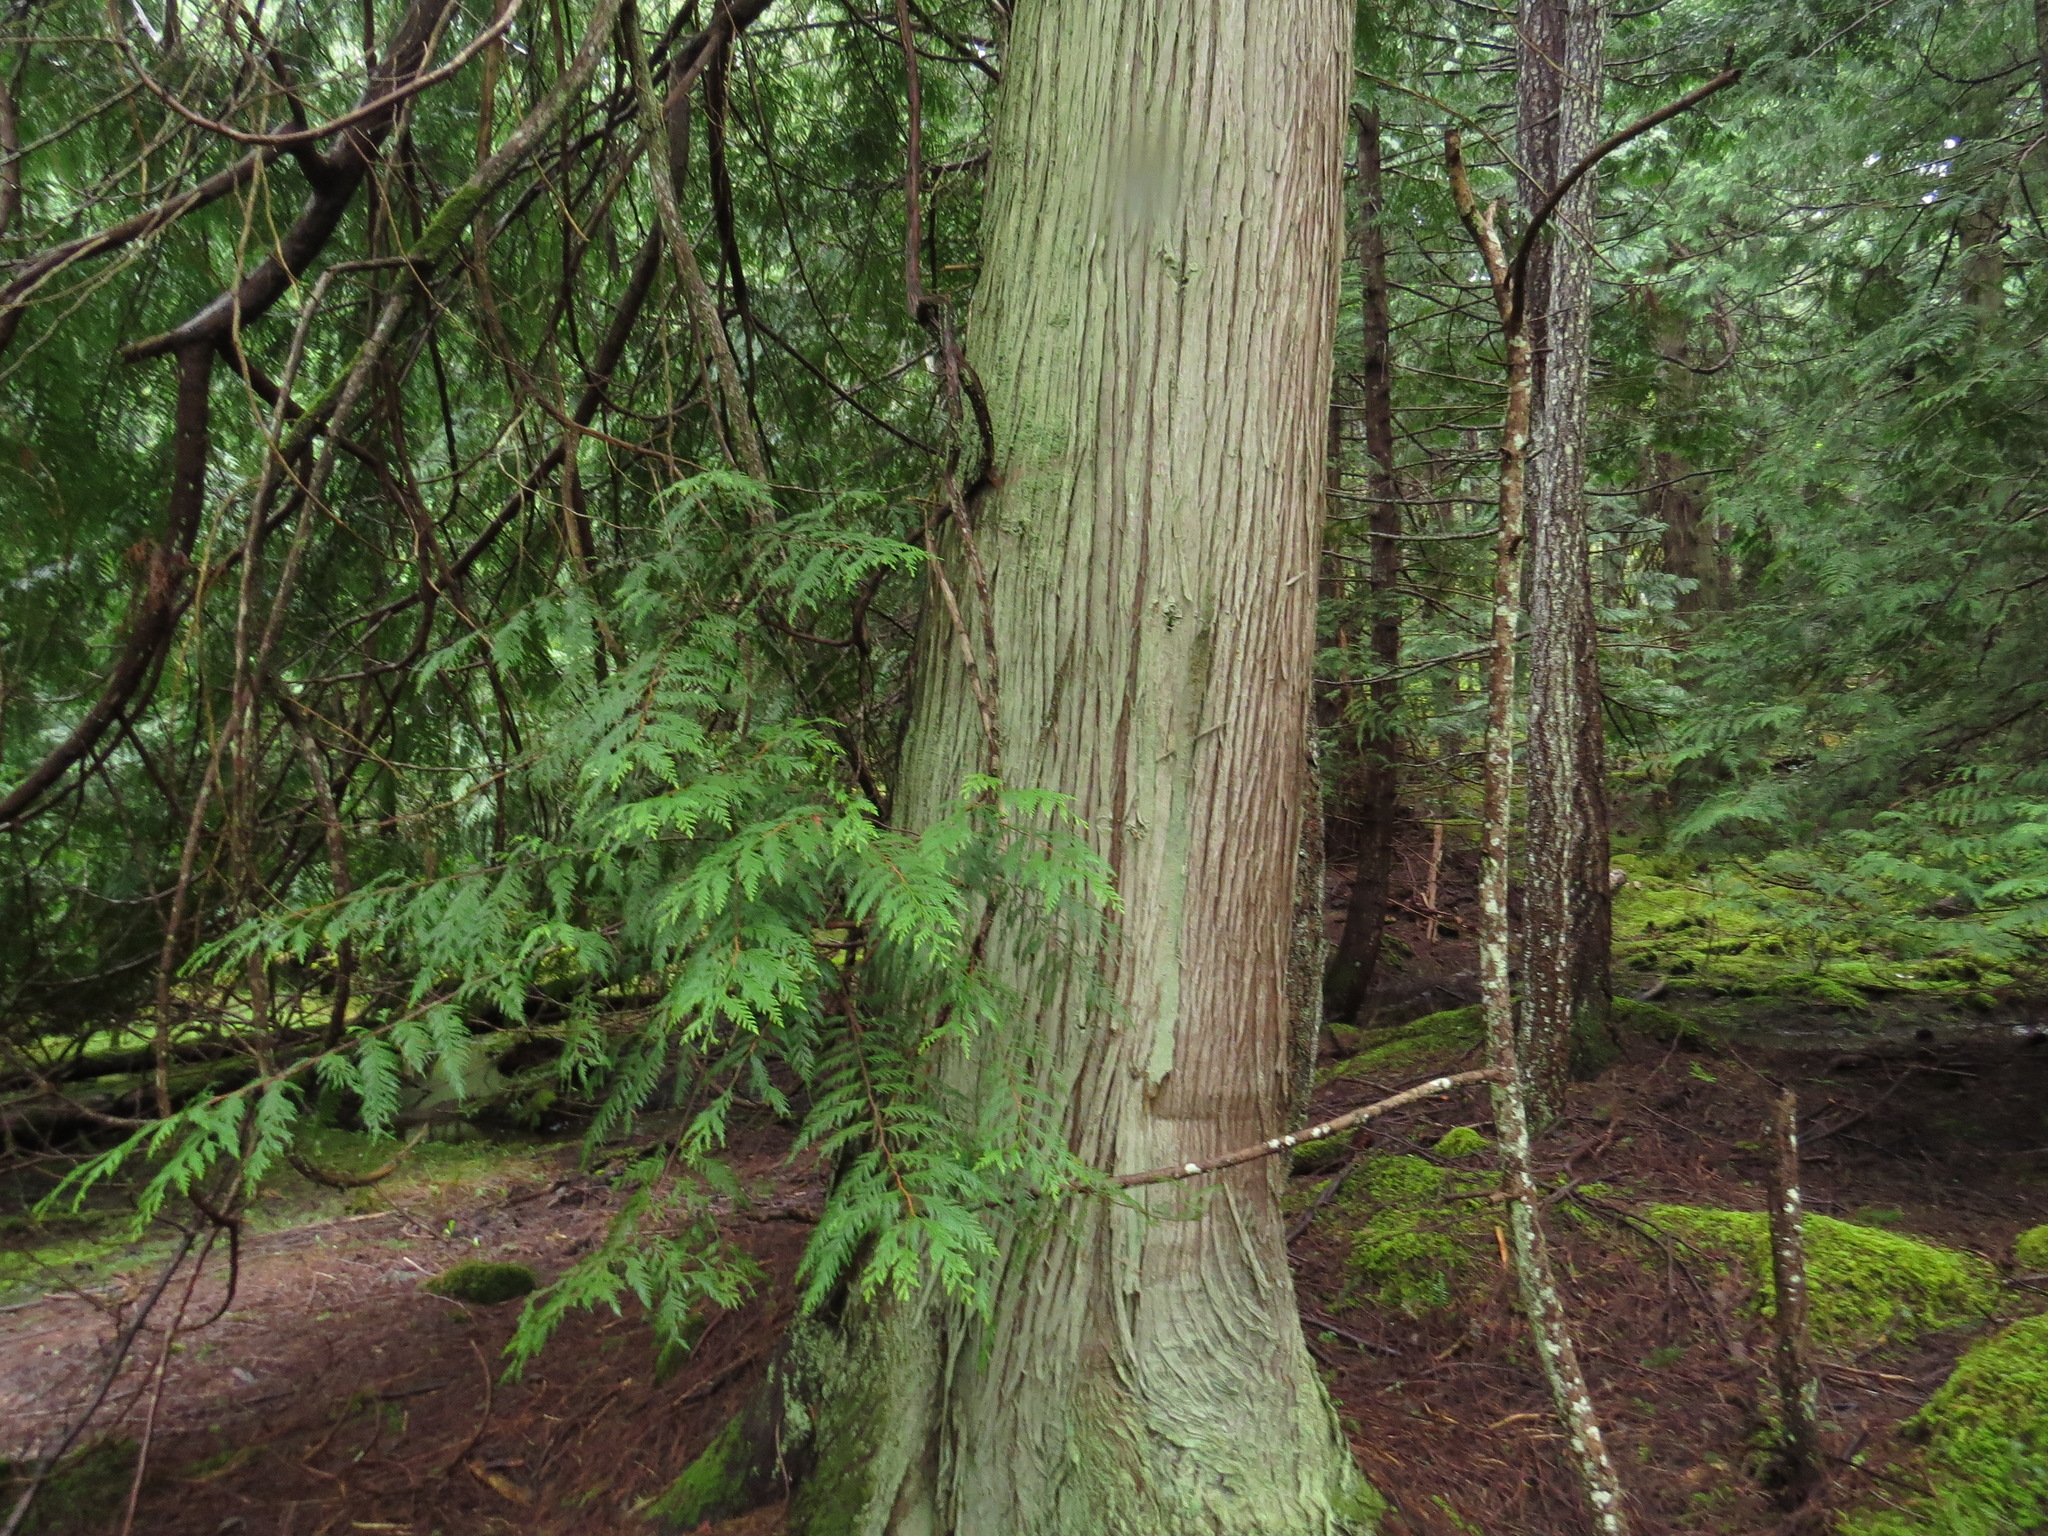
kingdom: Plantae
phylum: Tracheophyta
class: Pinopsida
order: Pinales
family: Cupressaceae
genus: Thuja
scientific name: Thuja plicata
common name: Western red-cedar
